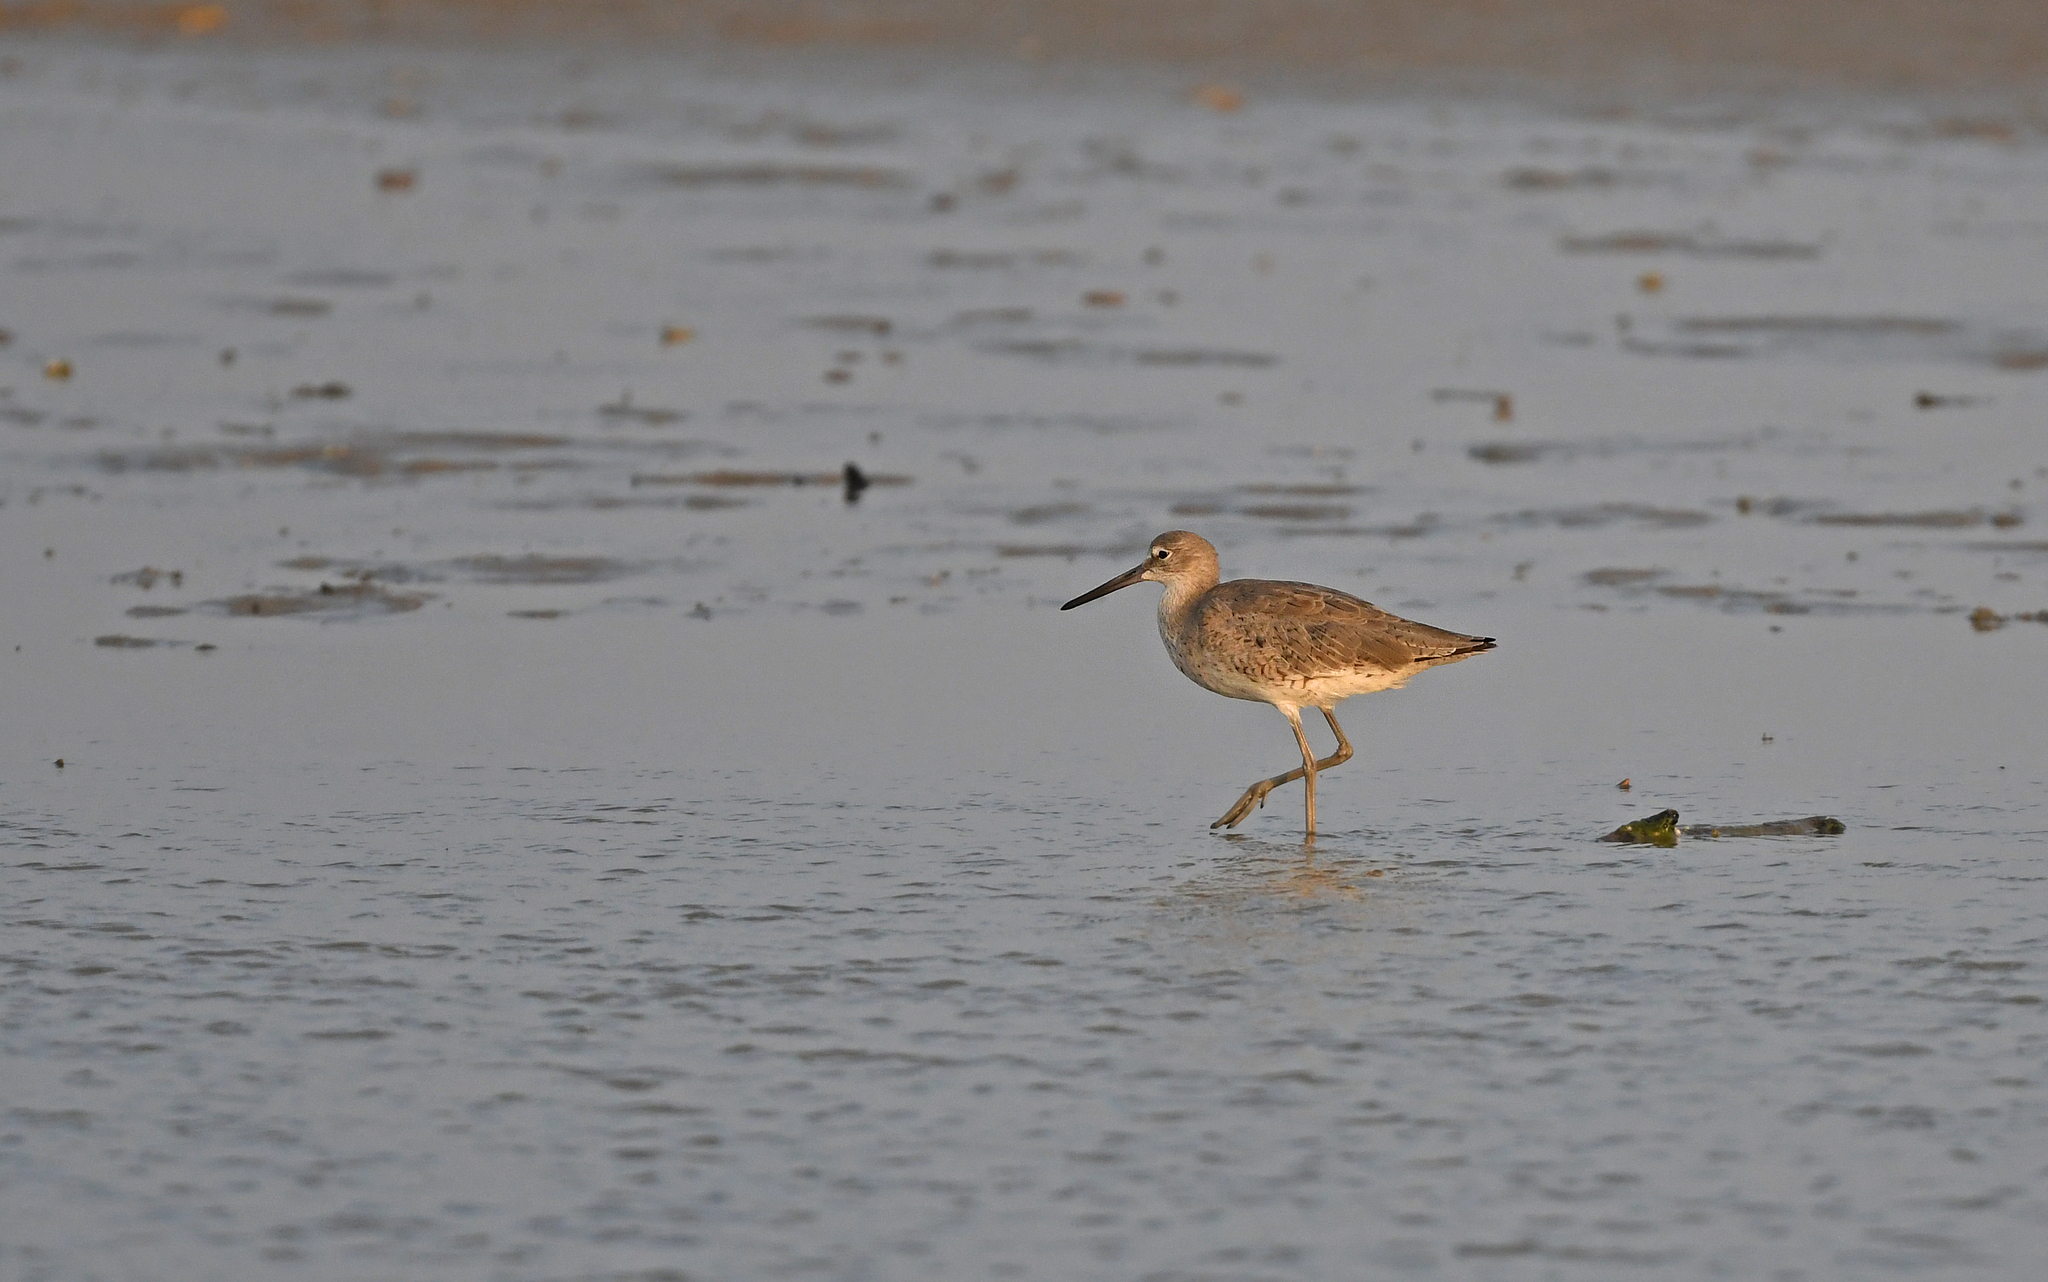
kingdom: Animalia
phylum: Chordata
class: Aves
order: Charadriiformes
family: Scolopacidae
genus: Tringa
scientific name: Tringa semipalmata
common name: Willet
